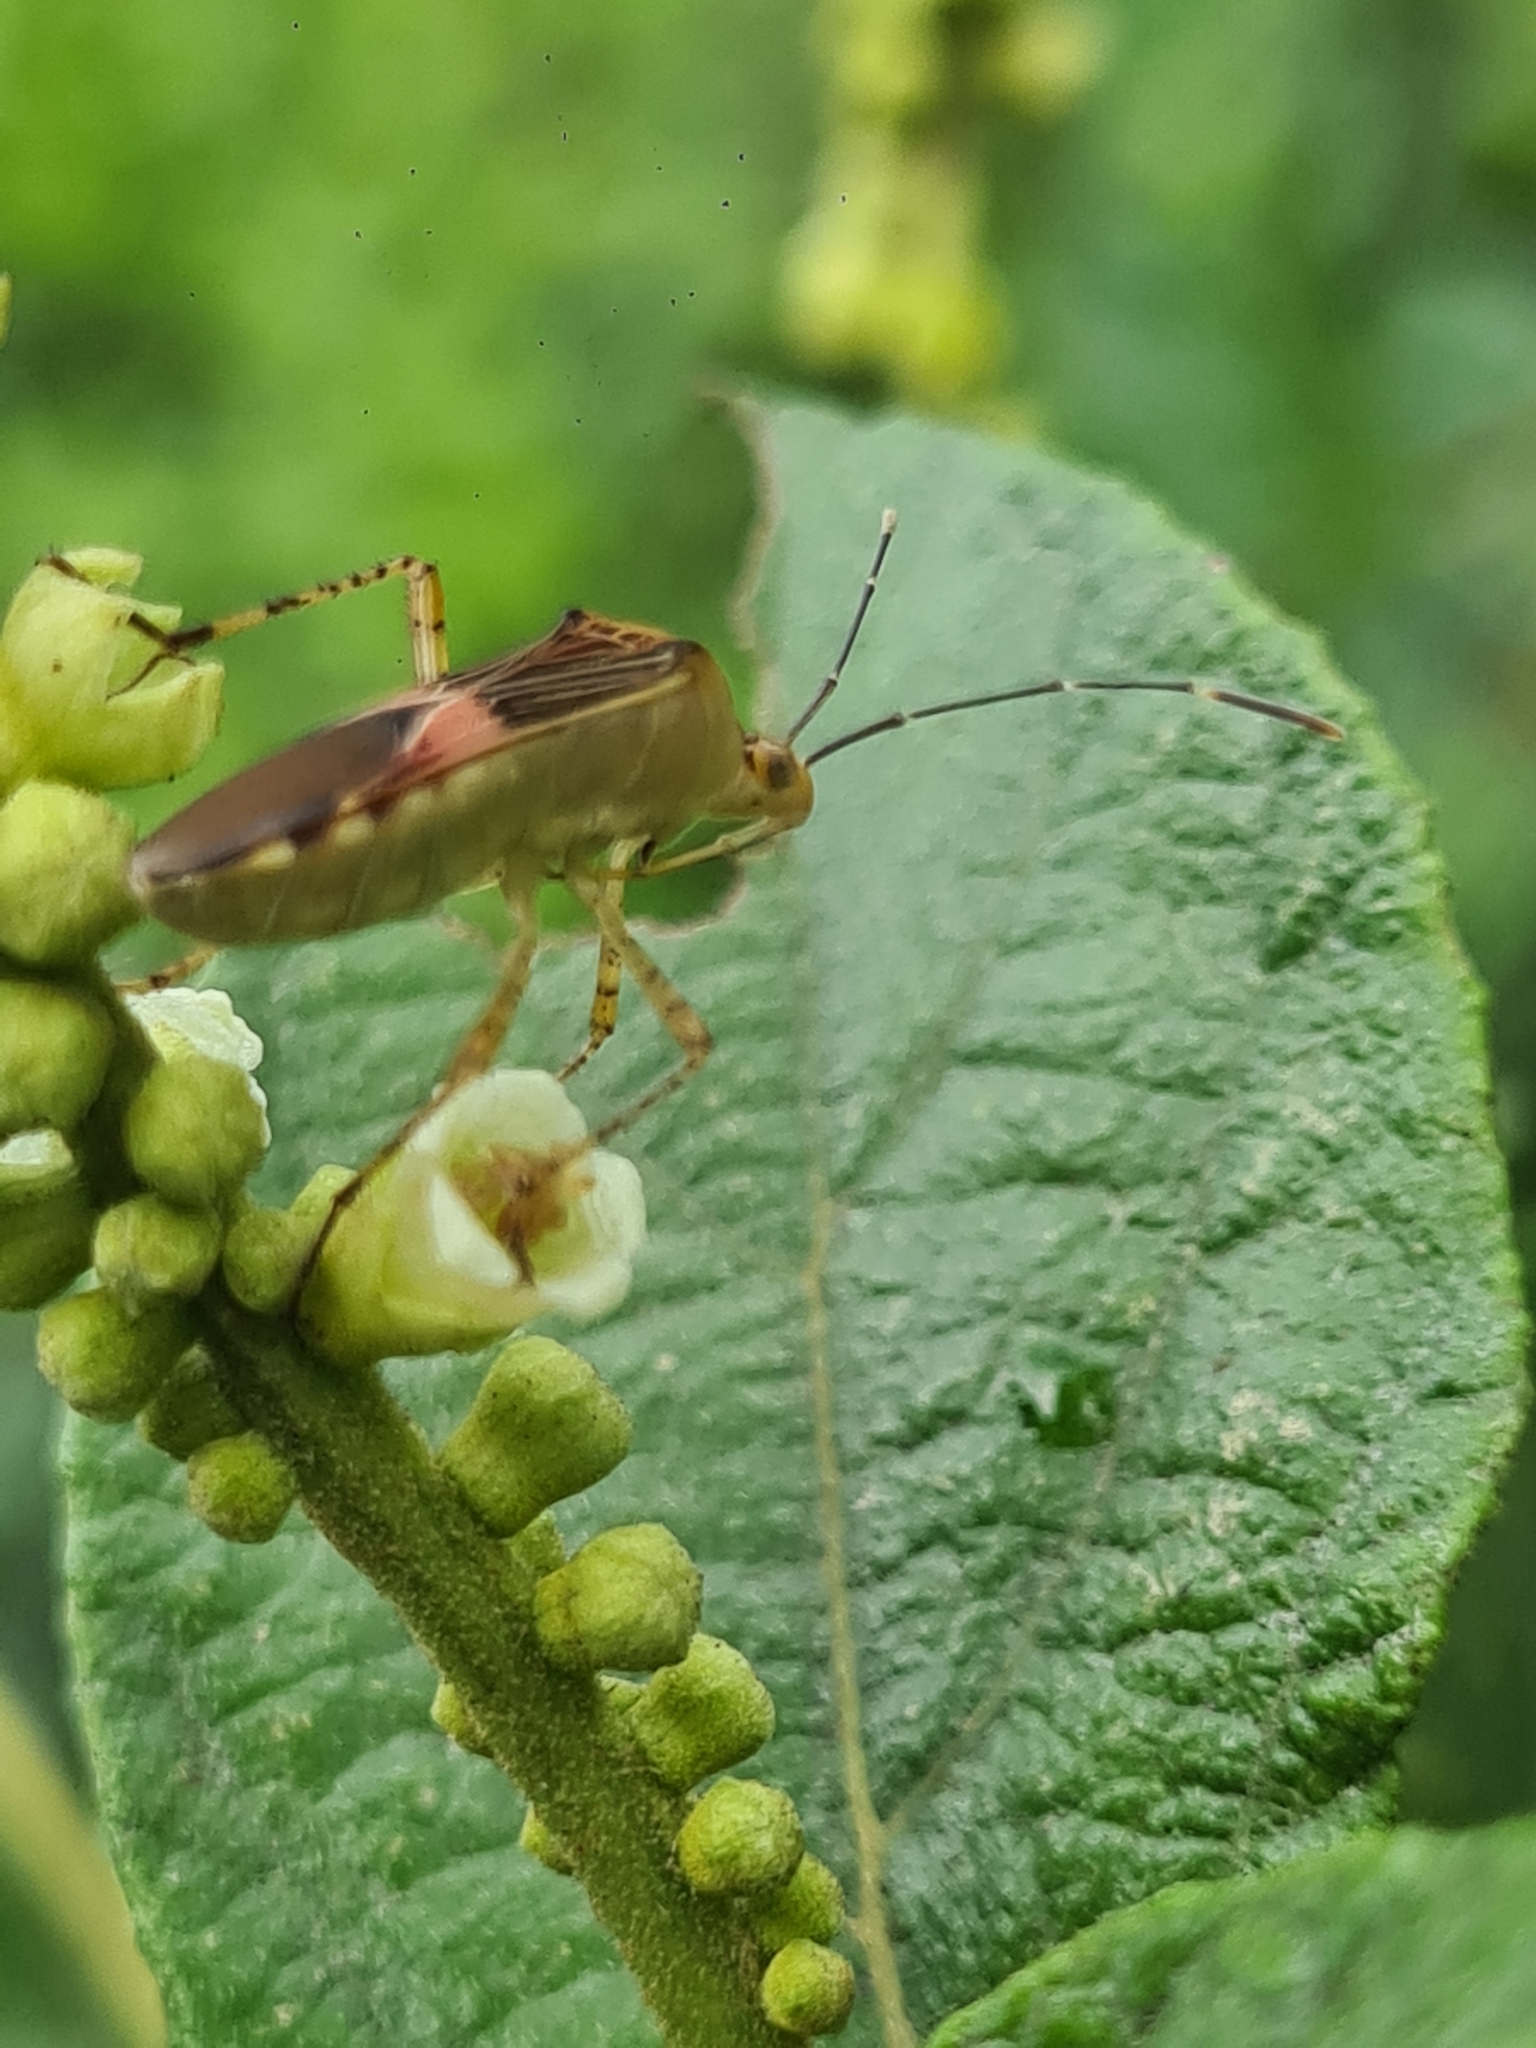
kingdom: Animalia
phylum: Arthropoda
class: Insecta
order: Hemiptera
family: Coreidae
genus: Hypselonotus
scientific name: Hypselonotus fulvus
